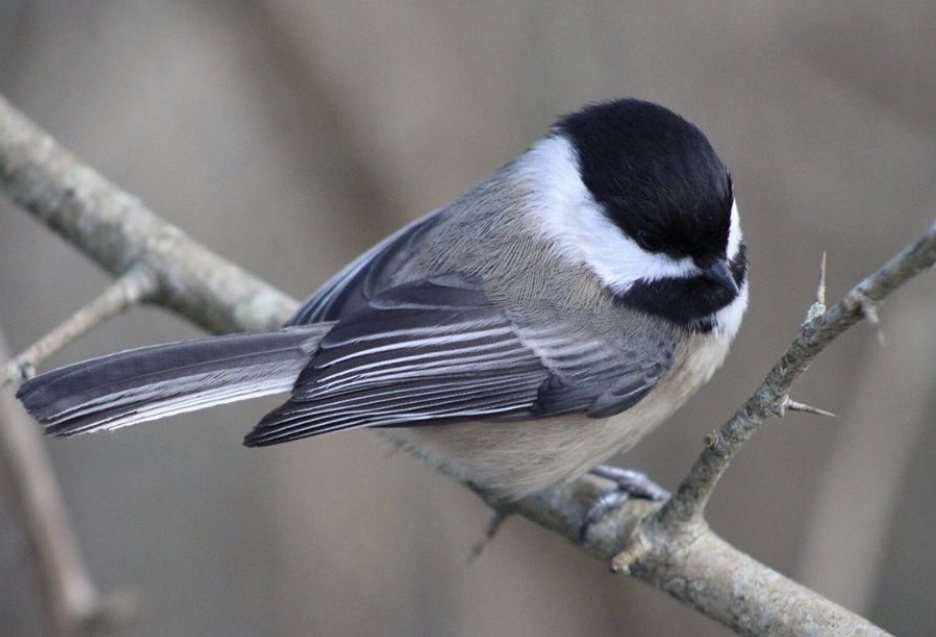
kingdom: Animalia
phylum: Chordata
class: Aves
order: Passeriformes
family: Paridae
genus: Poecile
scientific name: Poecile atricapillus
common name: Black-capped chickadee
